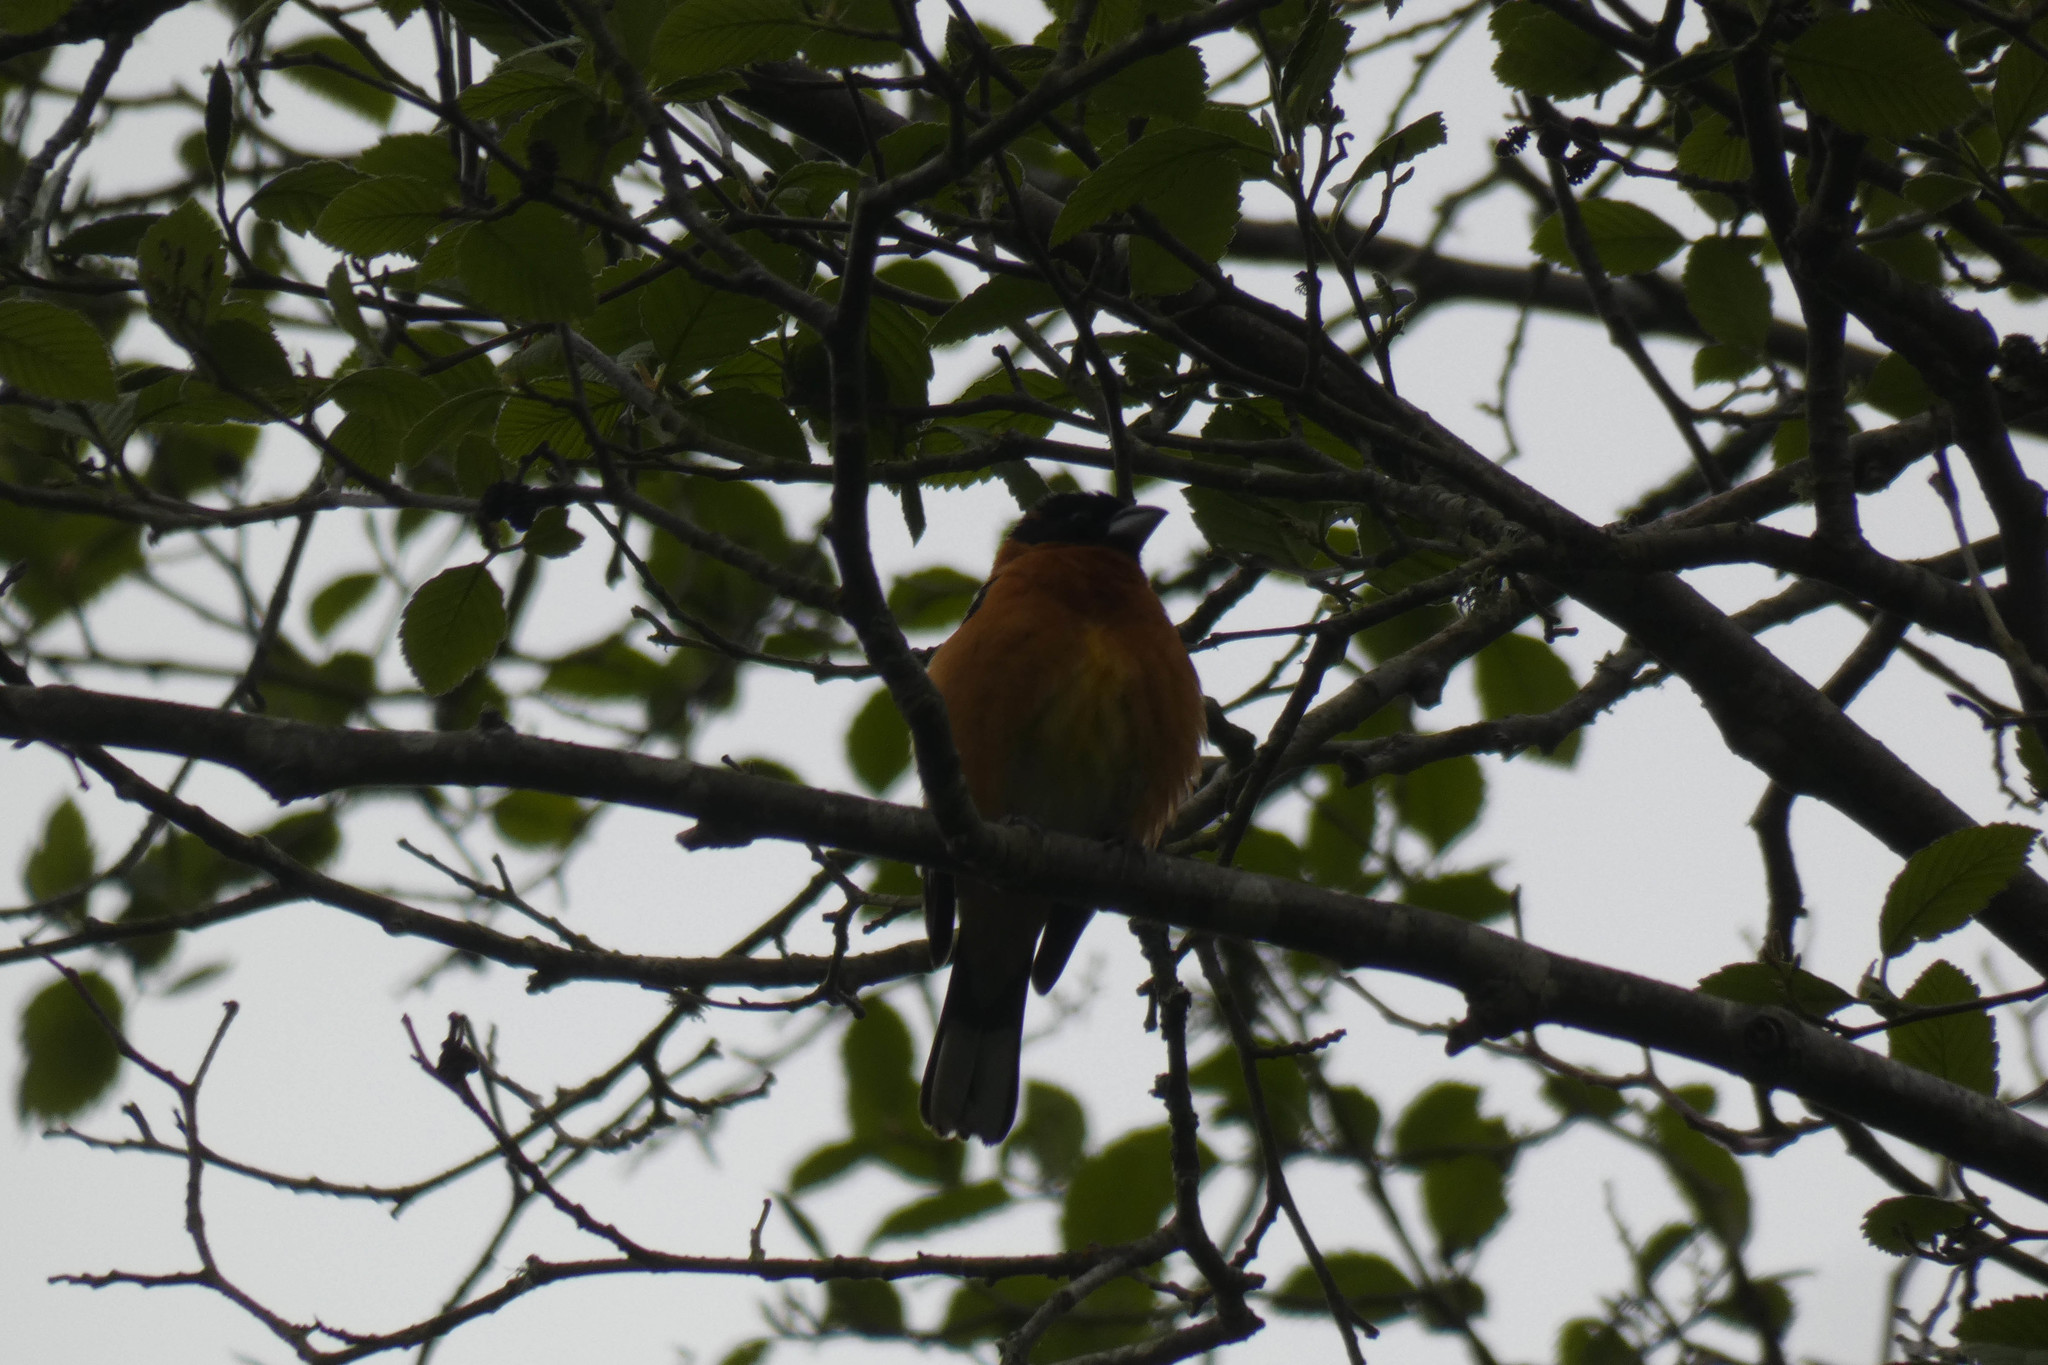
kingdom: Animalia
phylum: Chordata
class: Aves
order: Passeriformes
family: Cardinalidae
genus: Pheucticus
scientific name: Pheucticus melanocephalus
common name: Black-headed grosbeak
